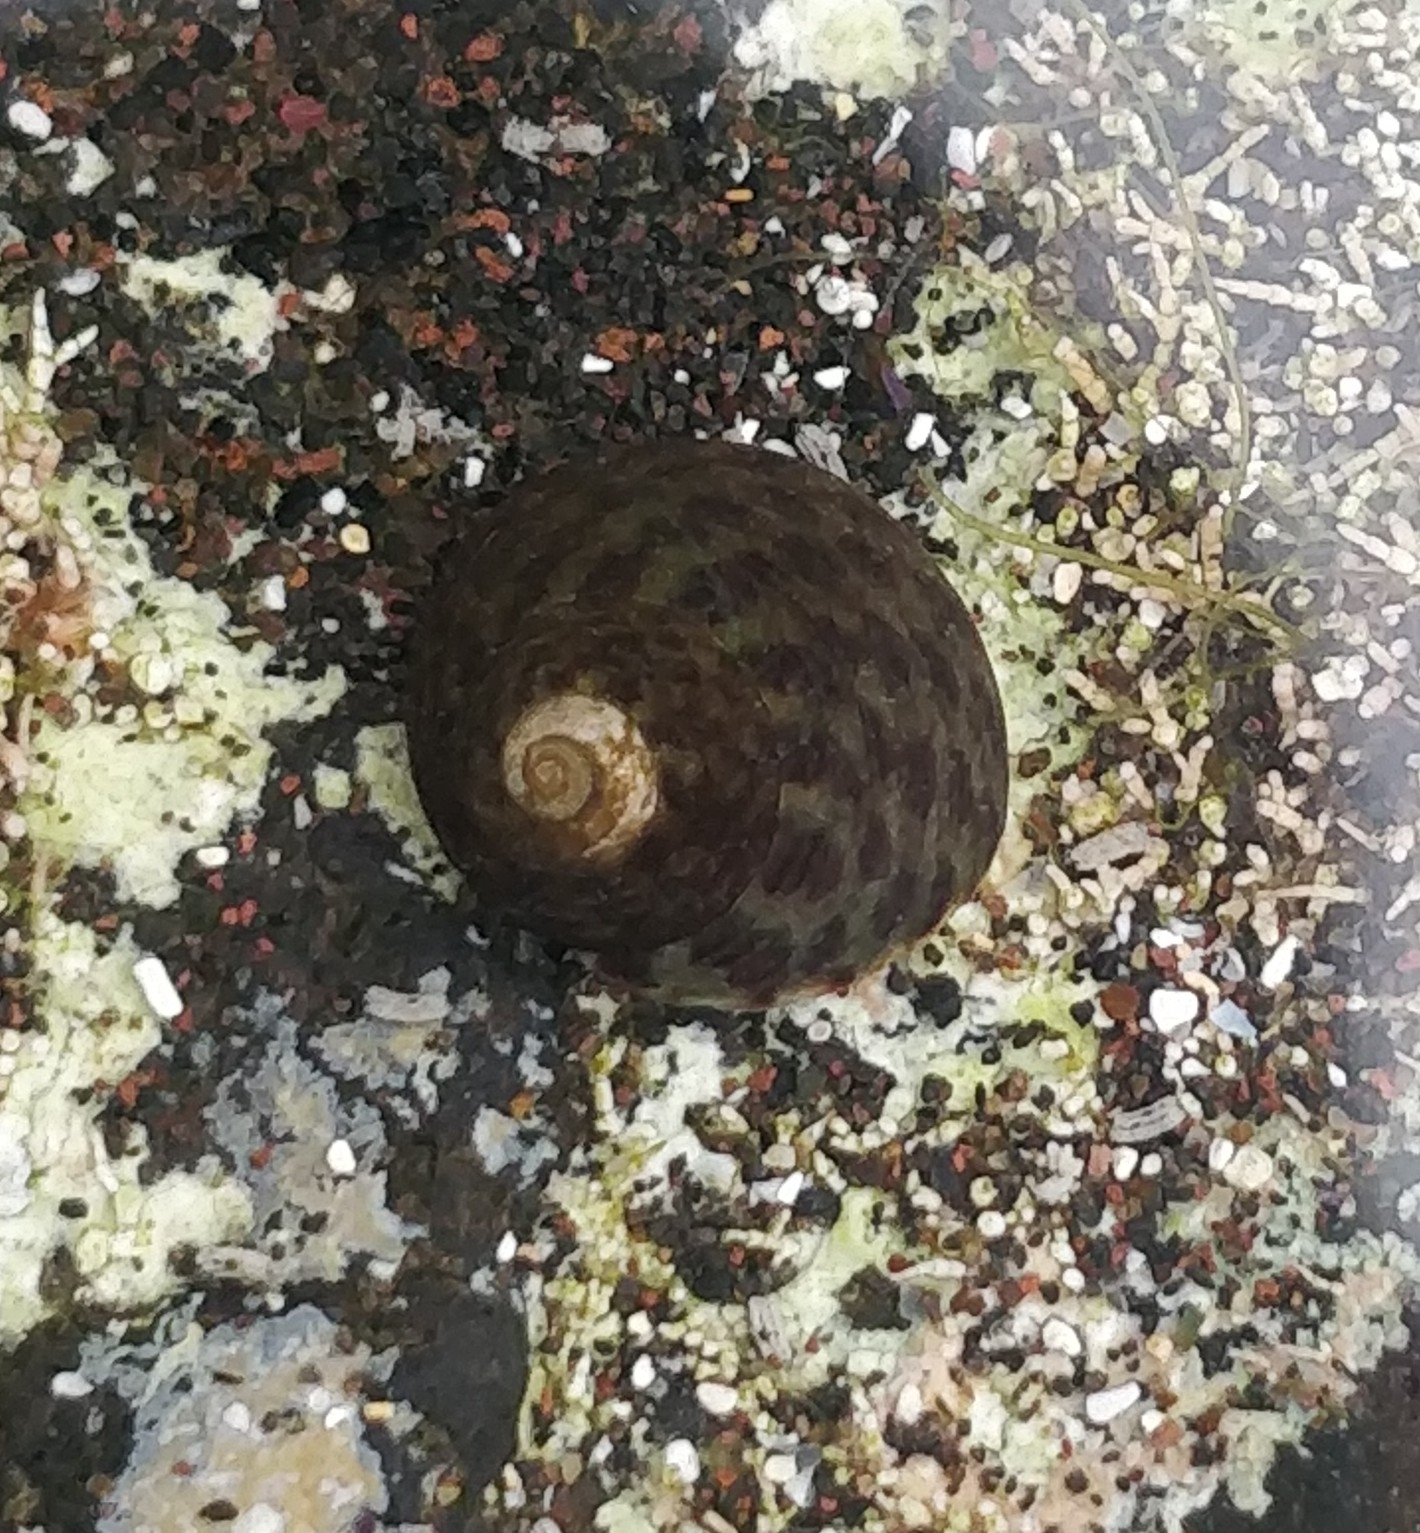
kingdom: Animalia
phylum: Mollusca
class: Gastropoda
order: Trochida
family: Trochidae
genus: Phorcus
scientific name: Phorcus sauciatus
